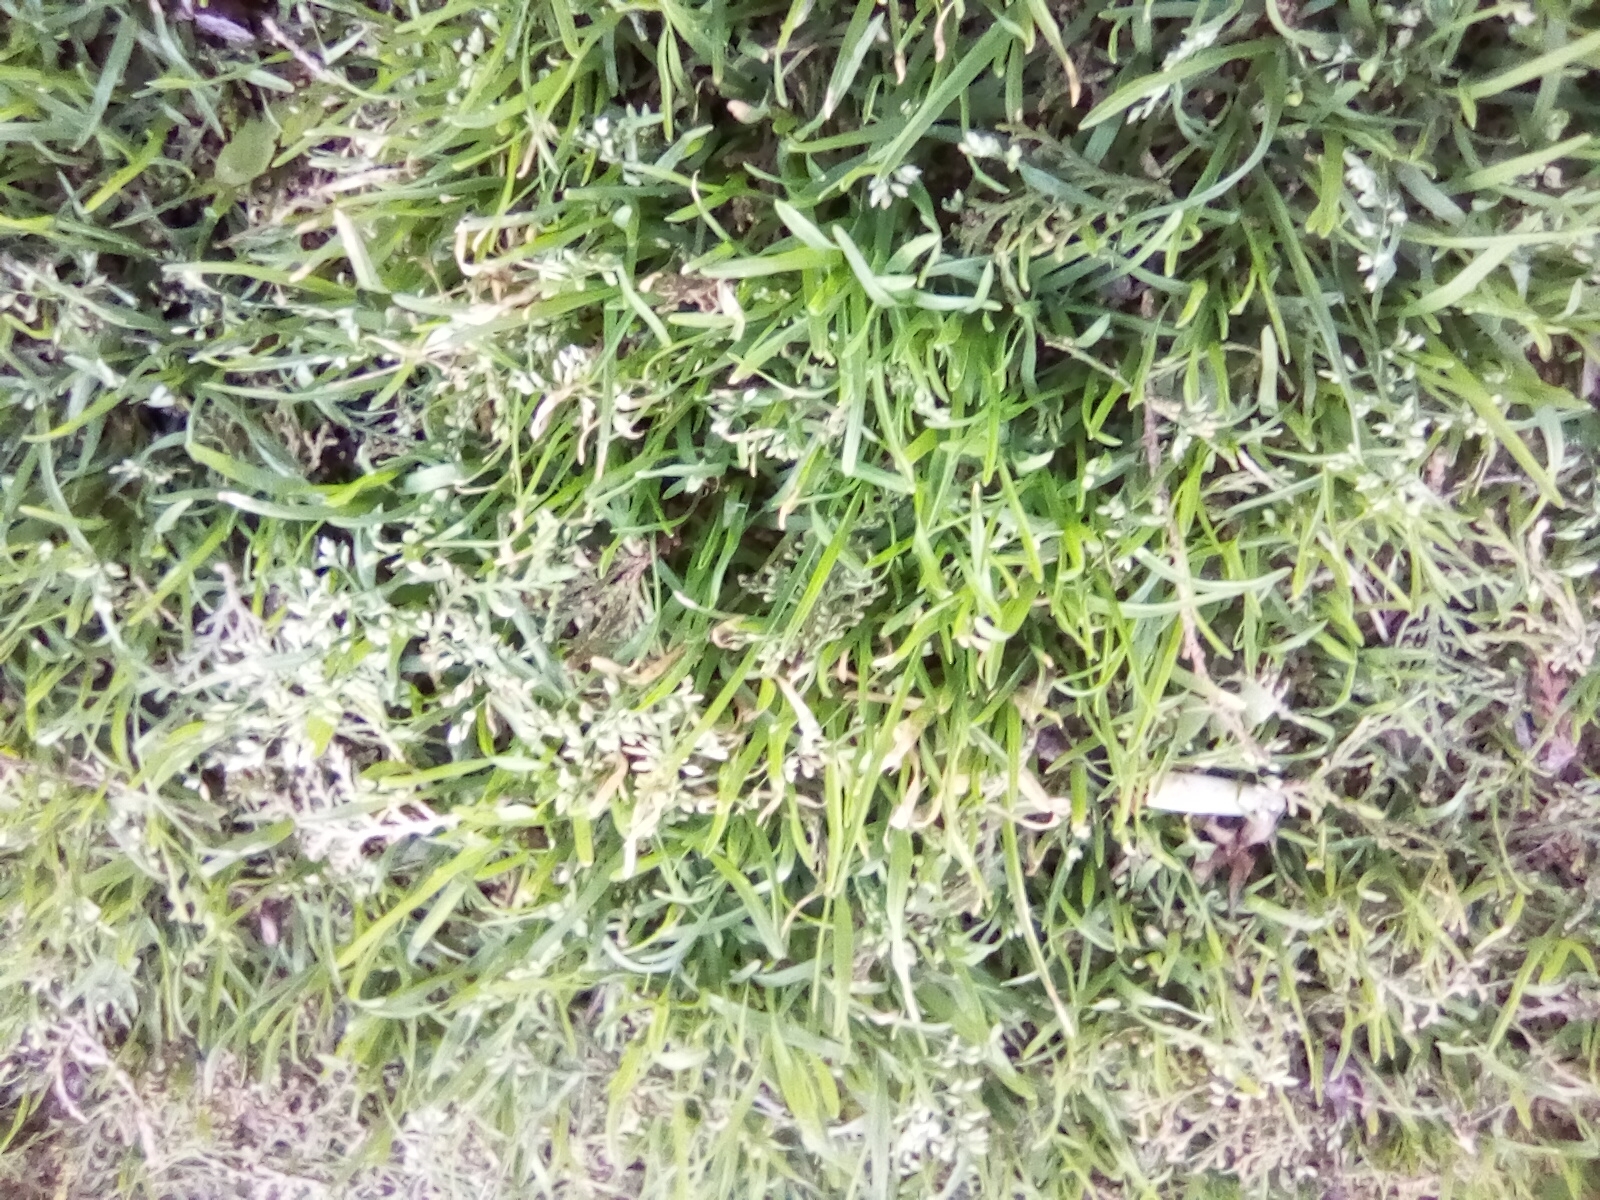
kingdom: Plantae
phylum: Tracheophyta
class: Liliopsida
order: Poales
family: Poaceae
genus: Poa
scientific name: Poa annua
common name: Annual bluegrass
